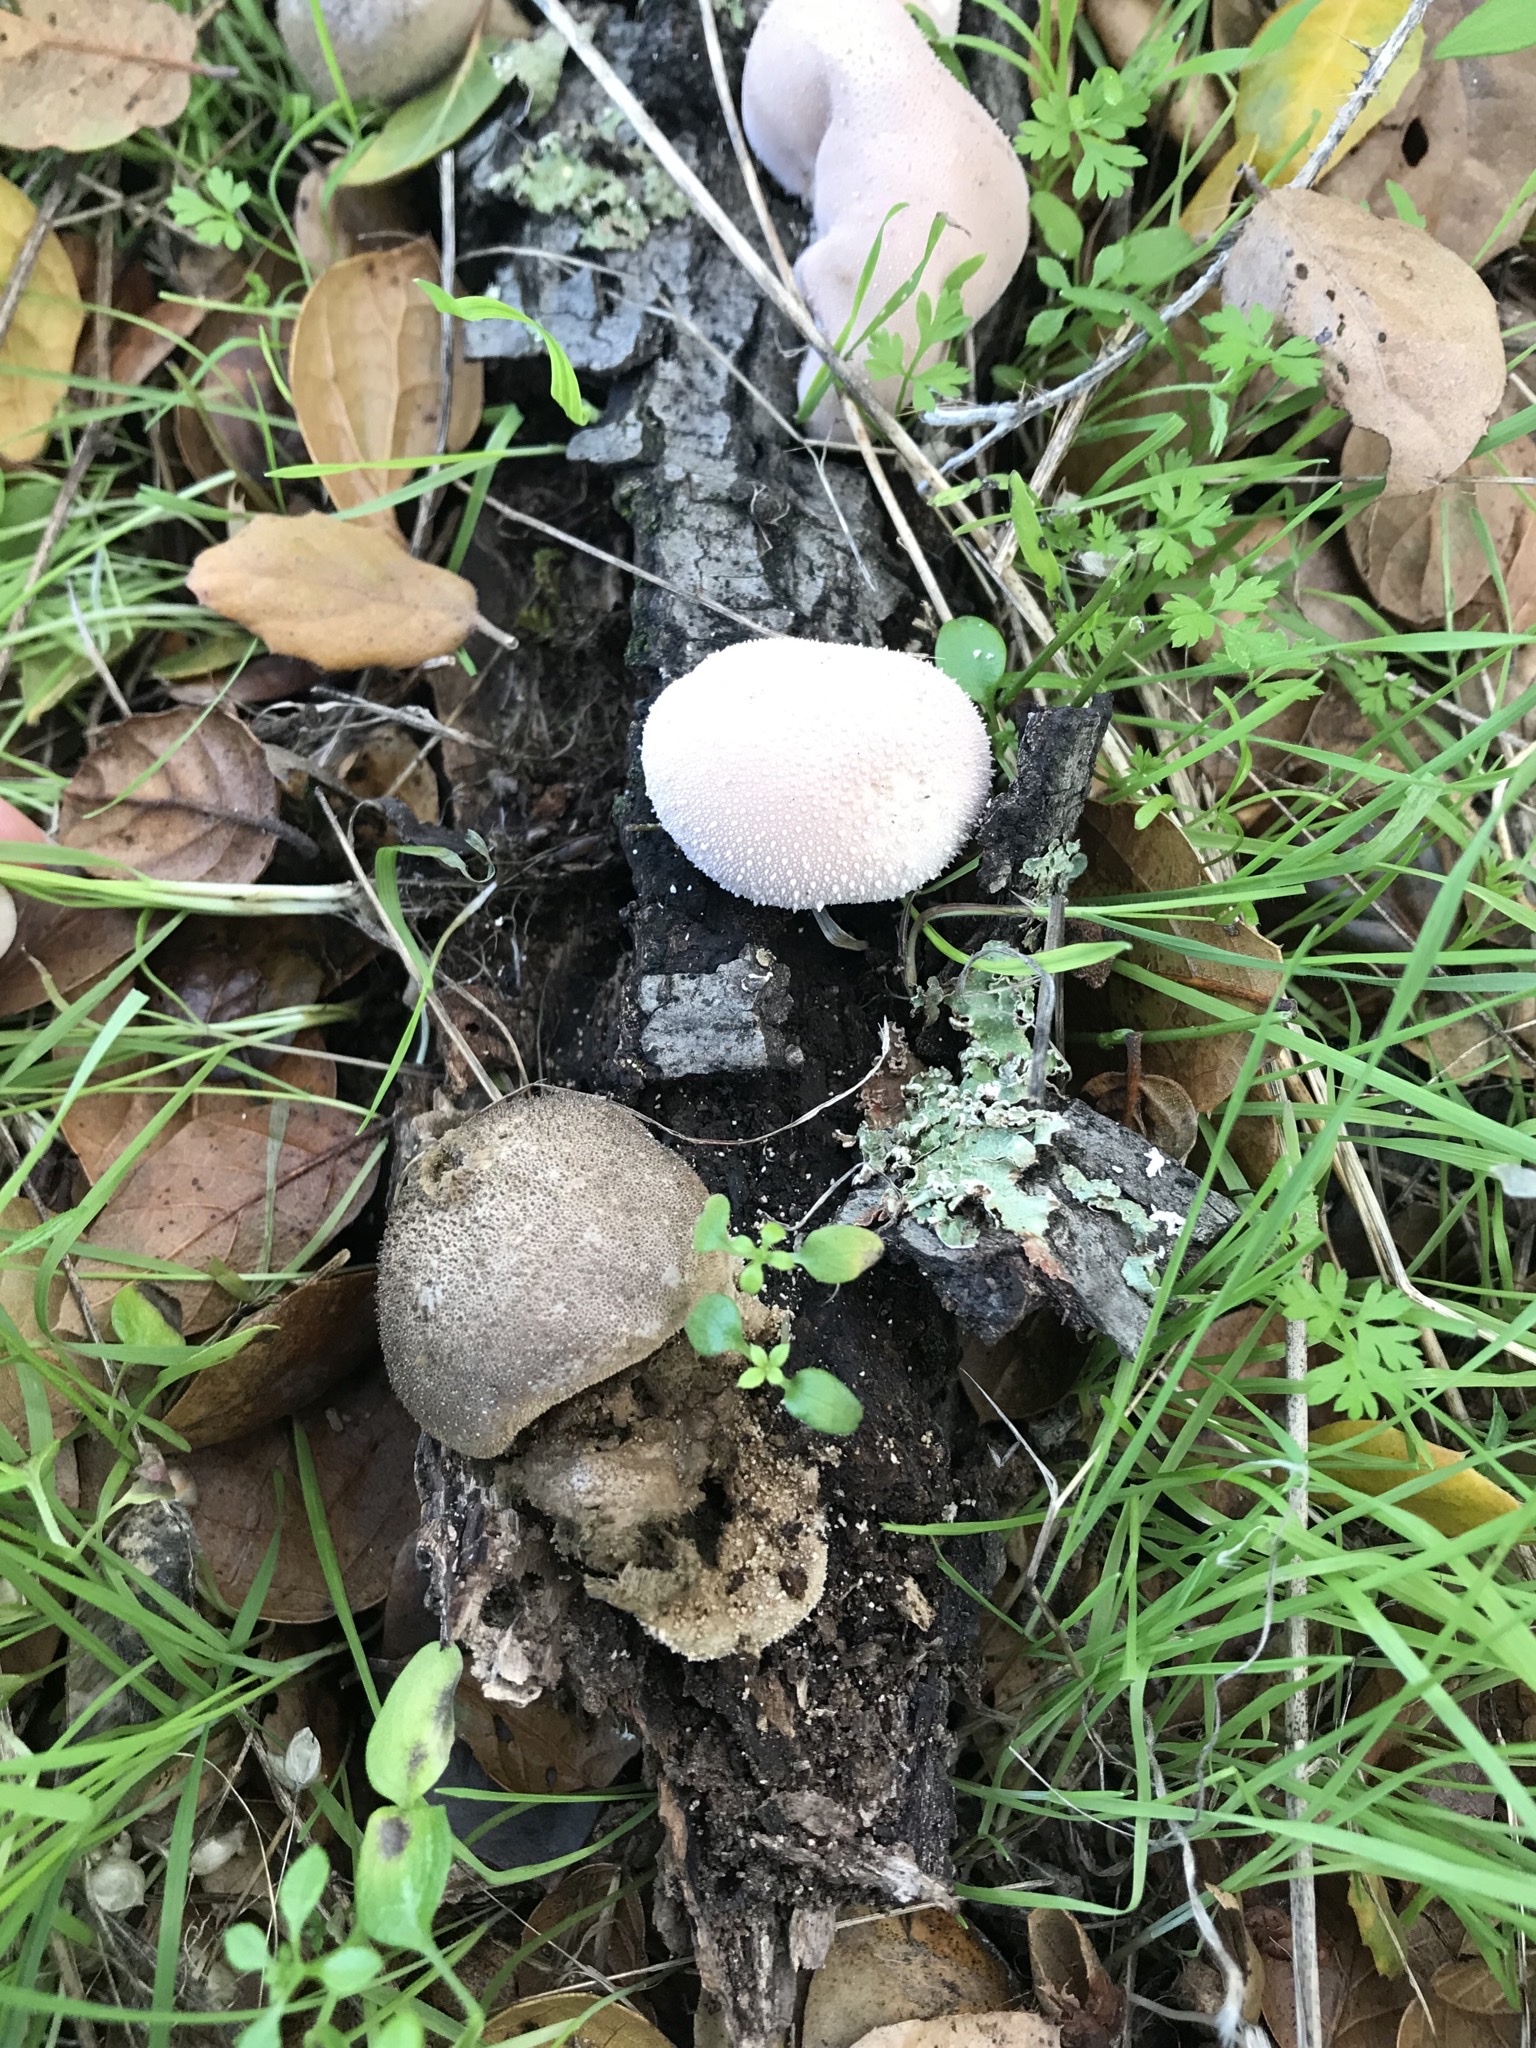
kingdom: Fungi
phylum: Basidiomycota
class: Agaricomycetes
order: Agaricales
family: Lycoperdaceae
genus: Lycoperdon
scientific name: Lycoperdon perlatum
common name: Common puffball
